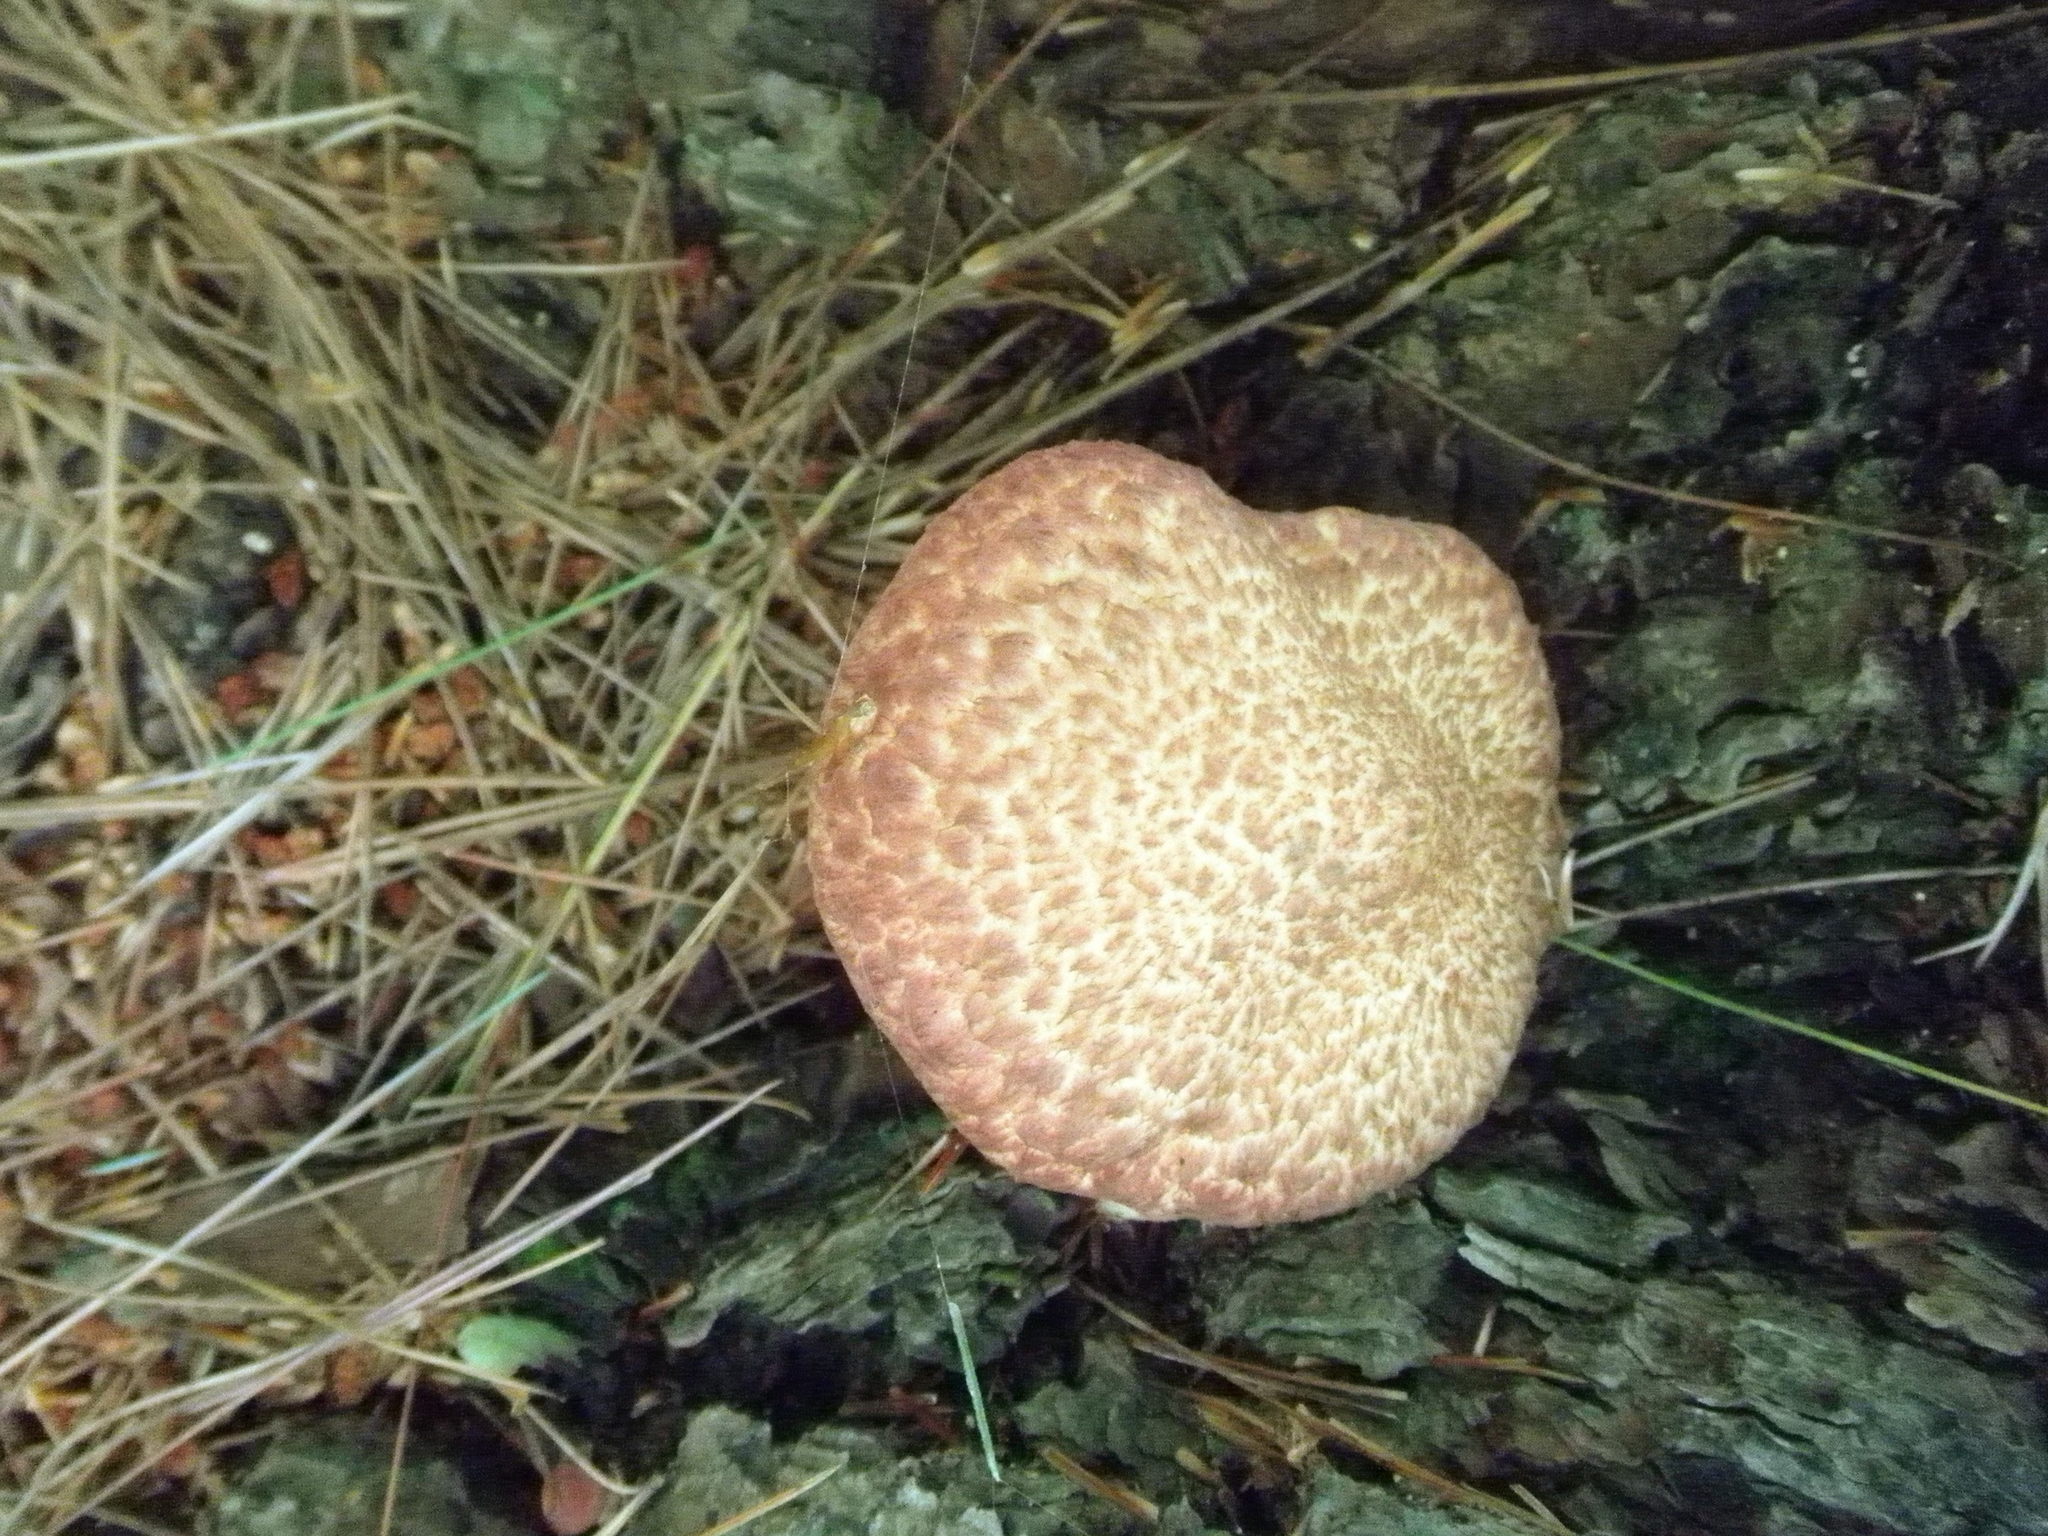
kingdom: Fungi
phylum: Basidiomycota
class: Agaricomycetes
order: Boletales
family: Suillaceae
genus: Suillus
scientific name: Suillus spraguei
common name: Painted suillus
